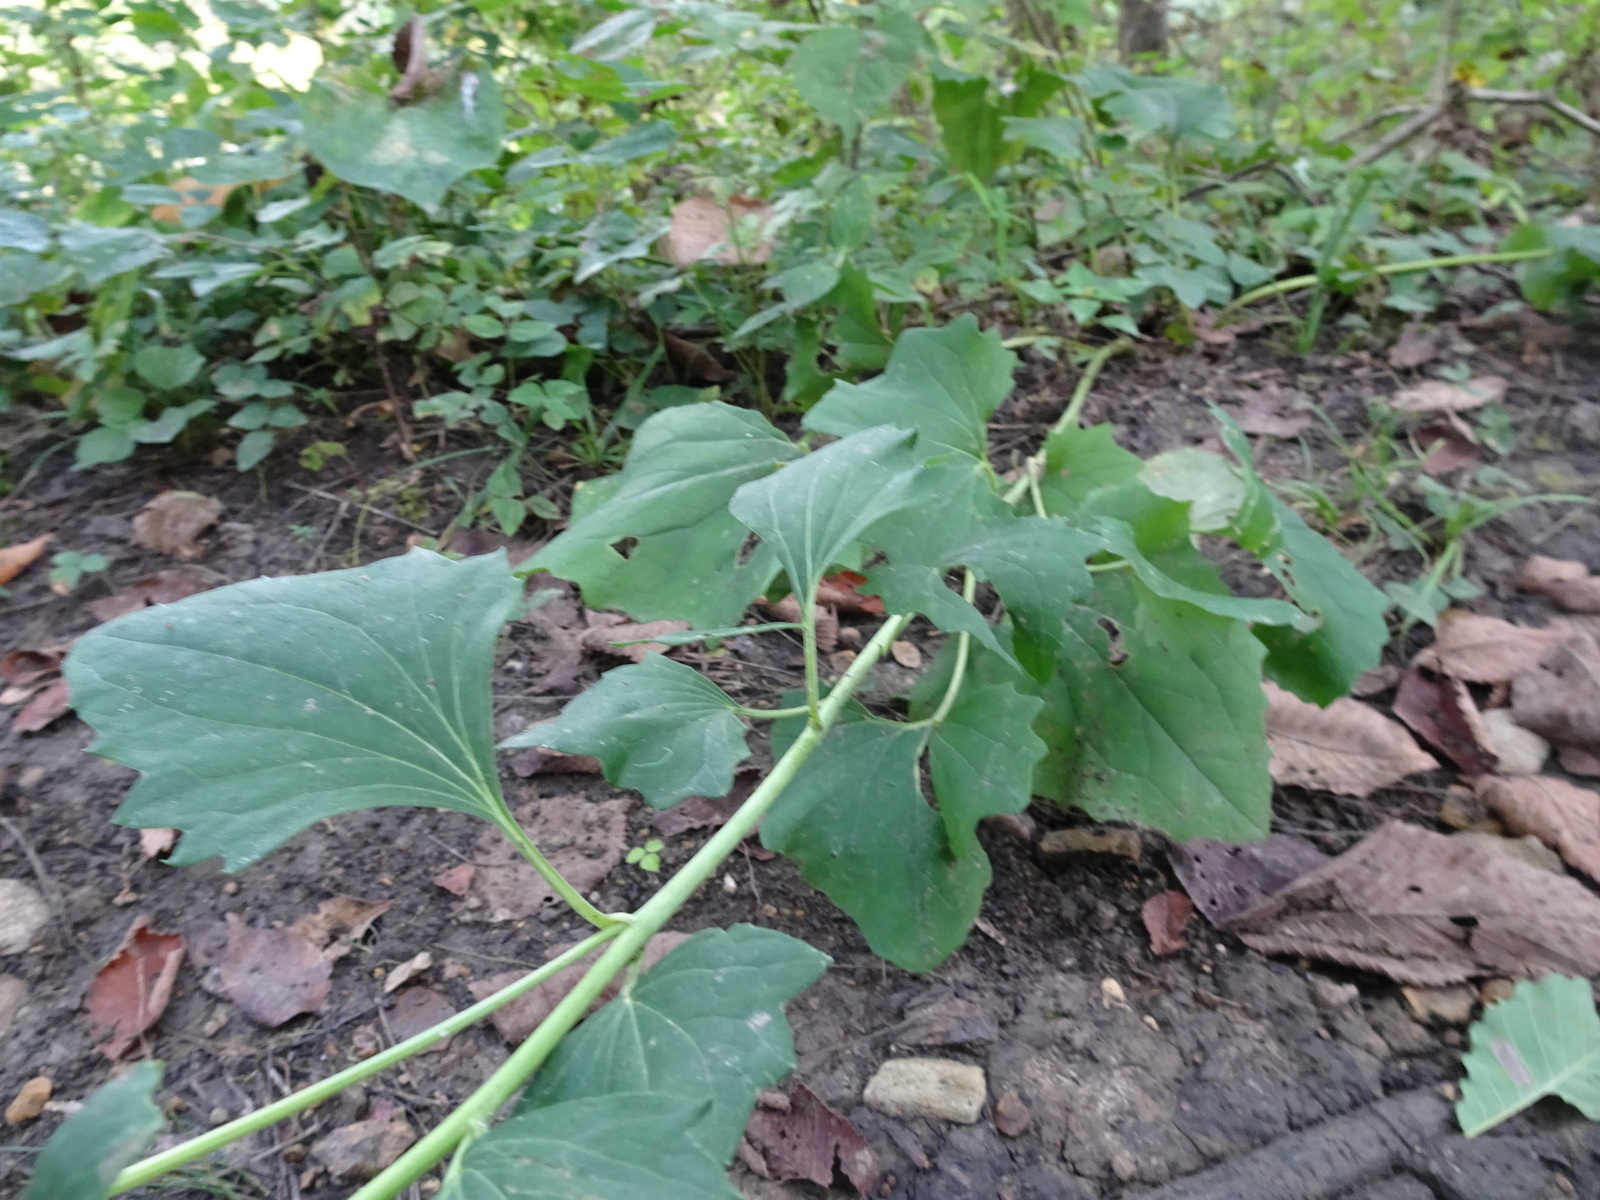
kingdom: Plantae
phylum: Tracheophyta
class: Magnoliopsida
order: Asterales
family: Asteraceae
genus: Arnoglossum
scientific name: Arnoglossum atriplicifolium
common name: Pale indian-plantain
